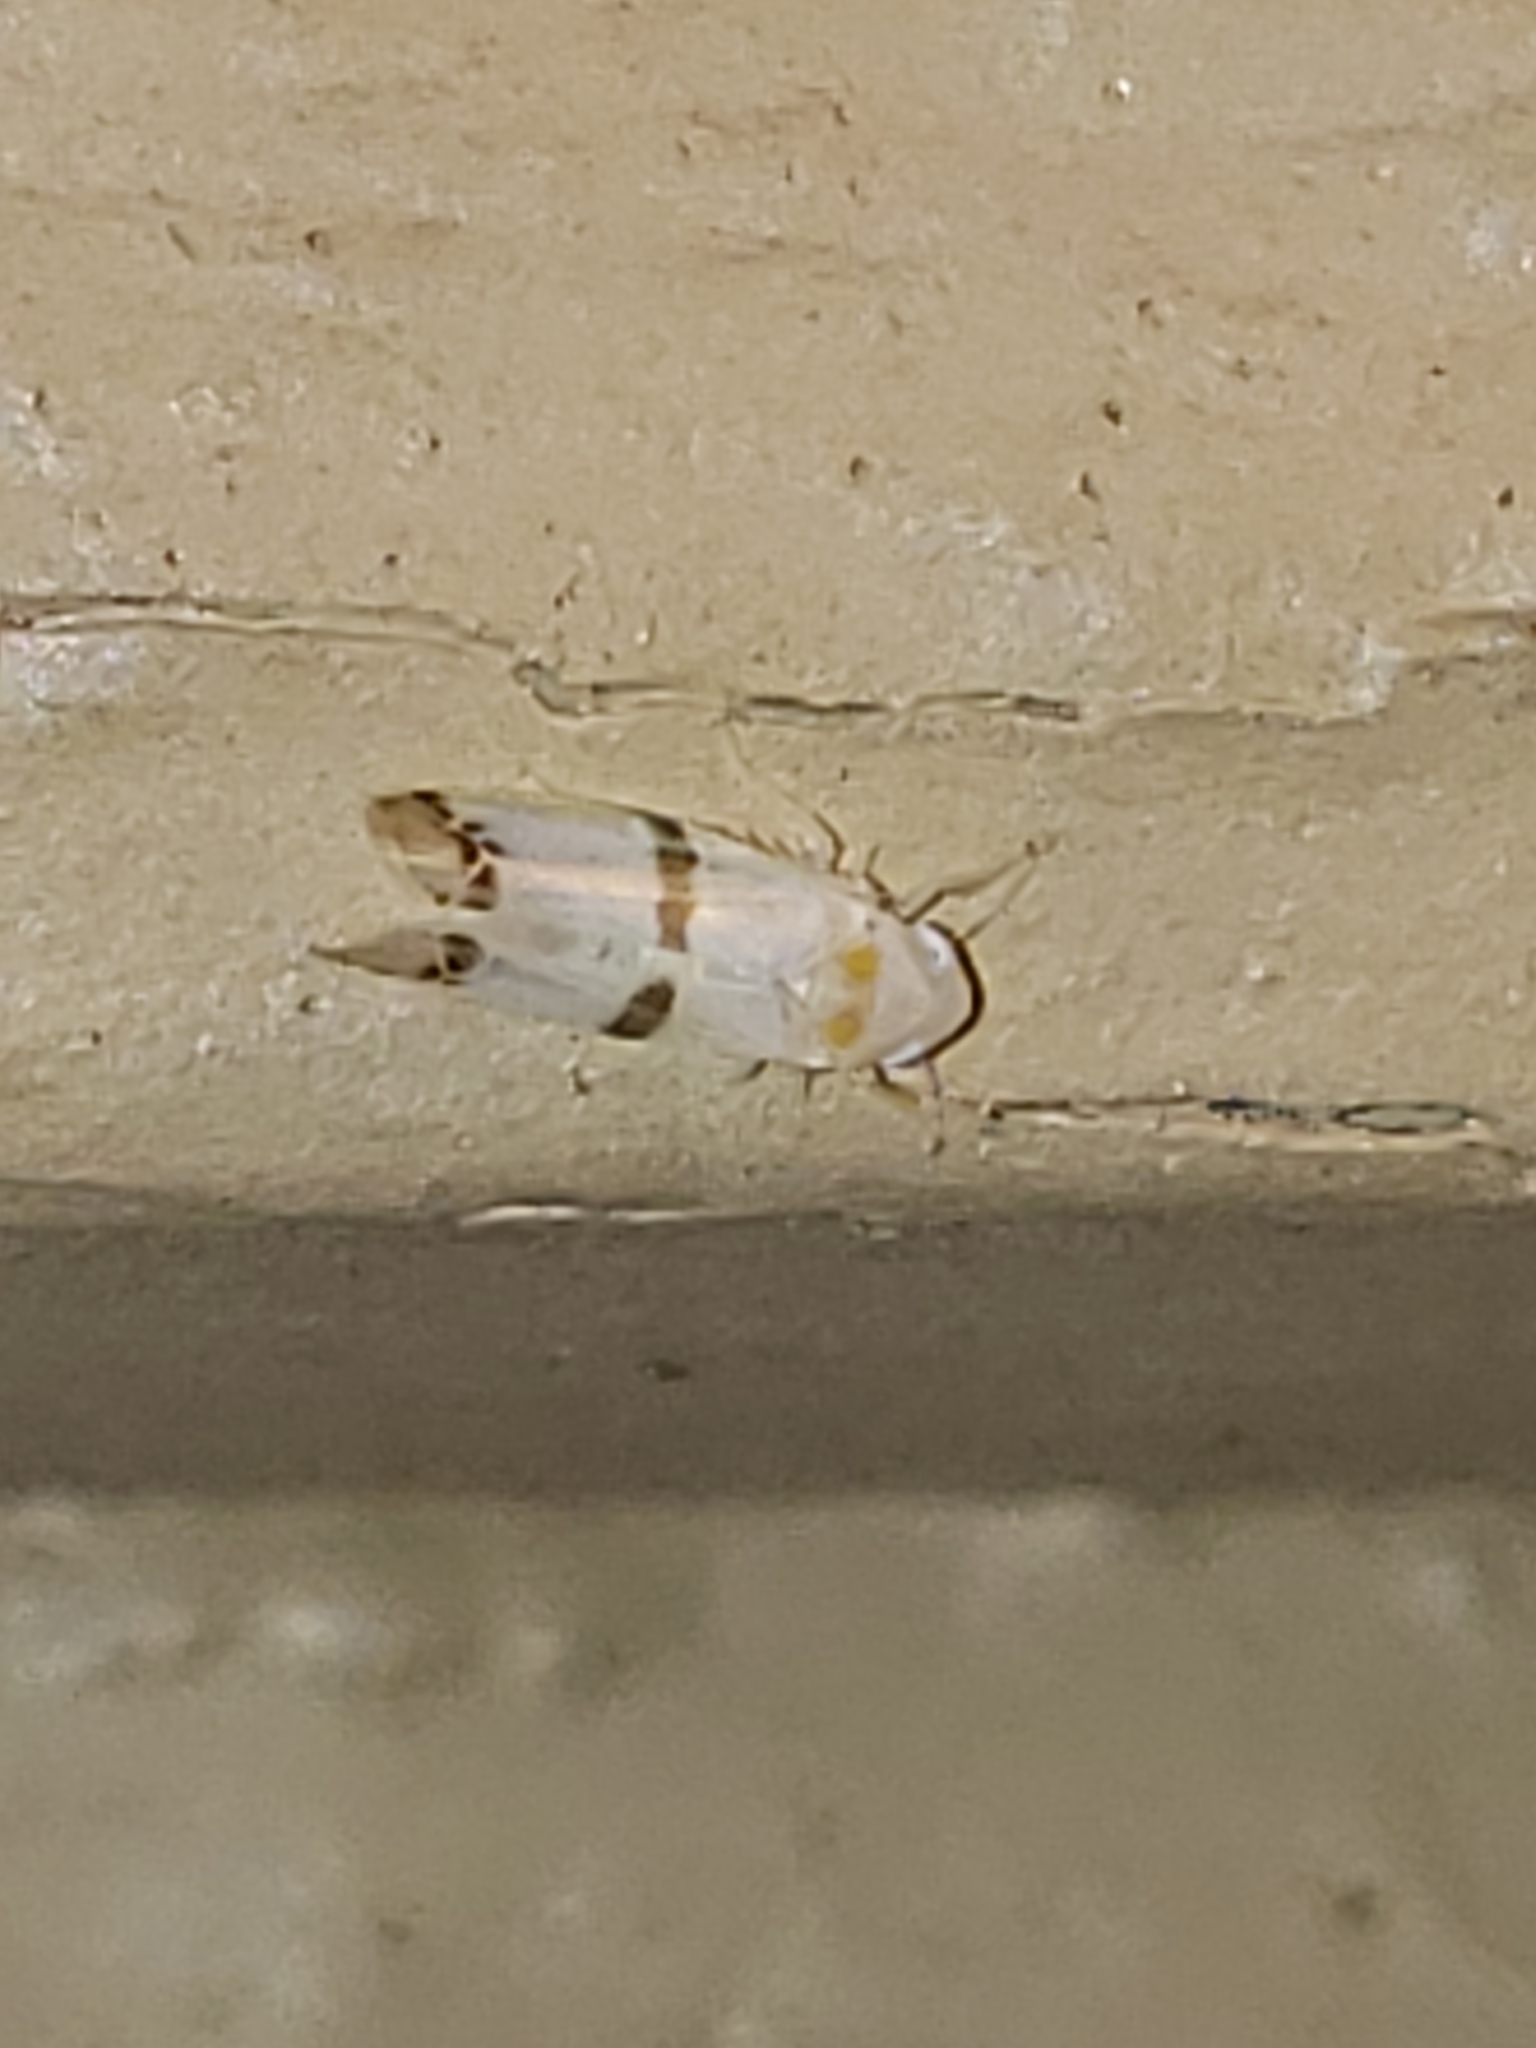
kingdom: Animalia
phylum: Arthropoda
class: Insecta
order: Hemiptera
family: Cicadellidae
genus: Empoa
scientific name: Empoa gillettei
